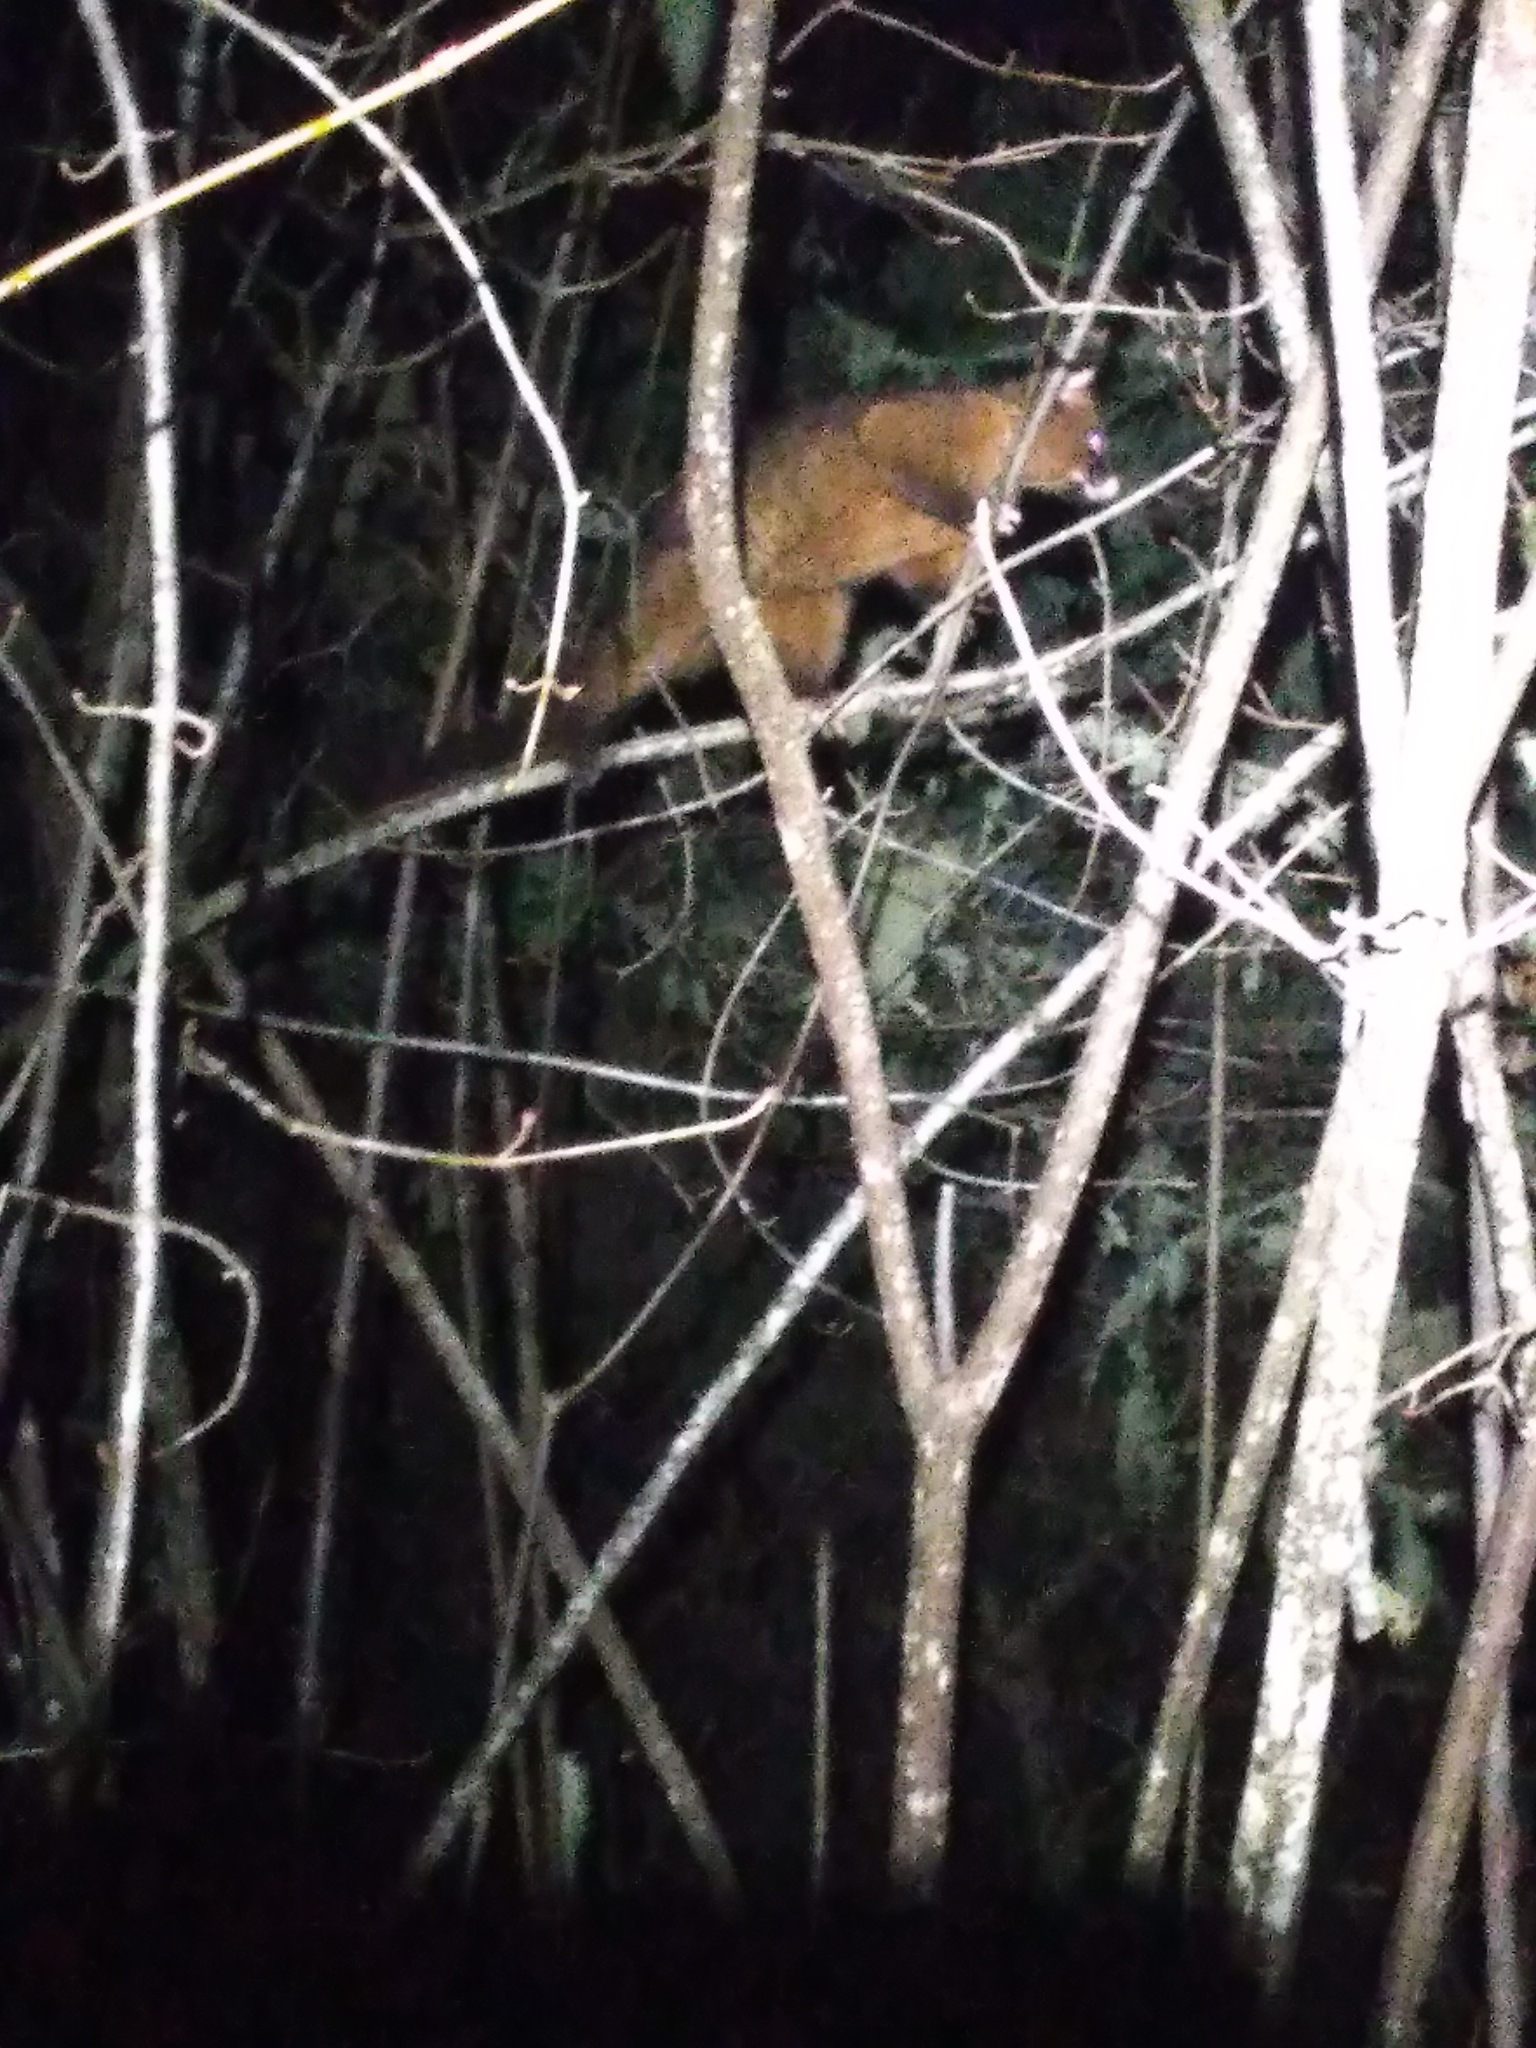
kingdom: Animalia
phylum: Chordata
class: Mammalia
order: Diprotodontia
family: Phalangeridae
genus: Trichosurus
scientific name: Trichosurus vulpecula
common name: Common brushtail
